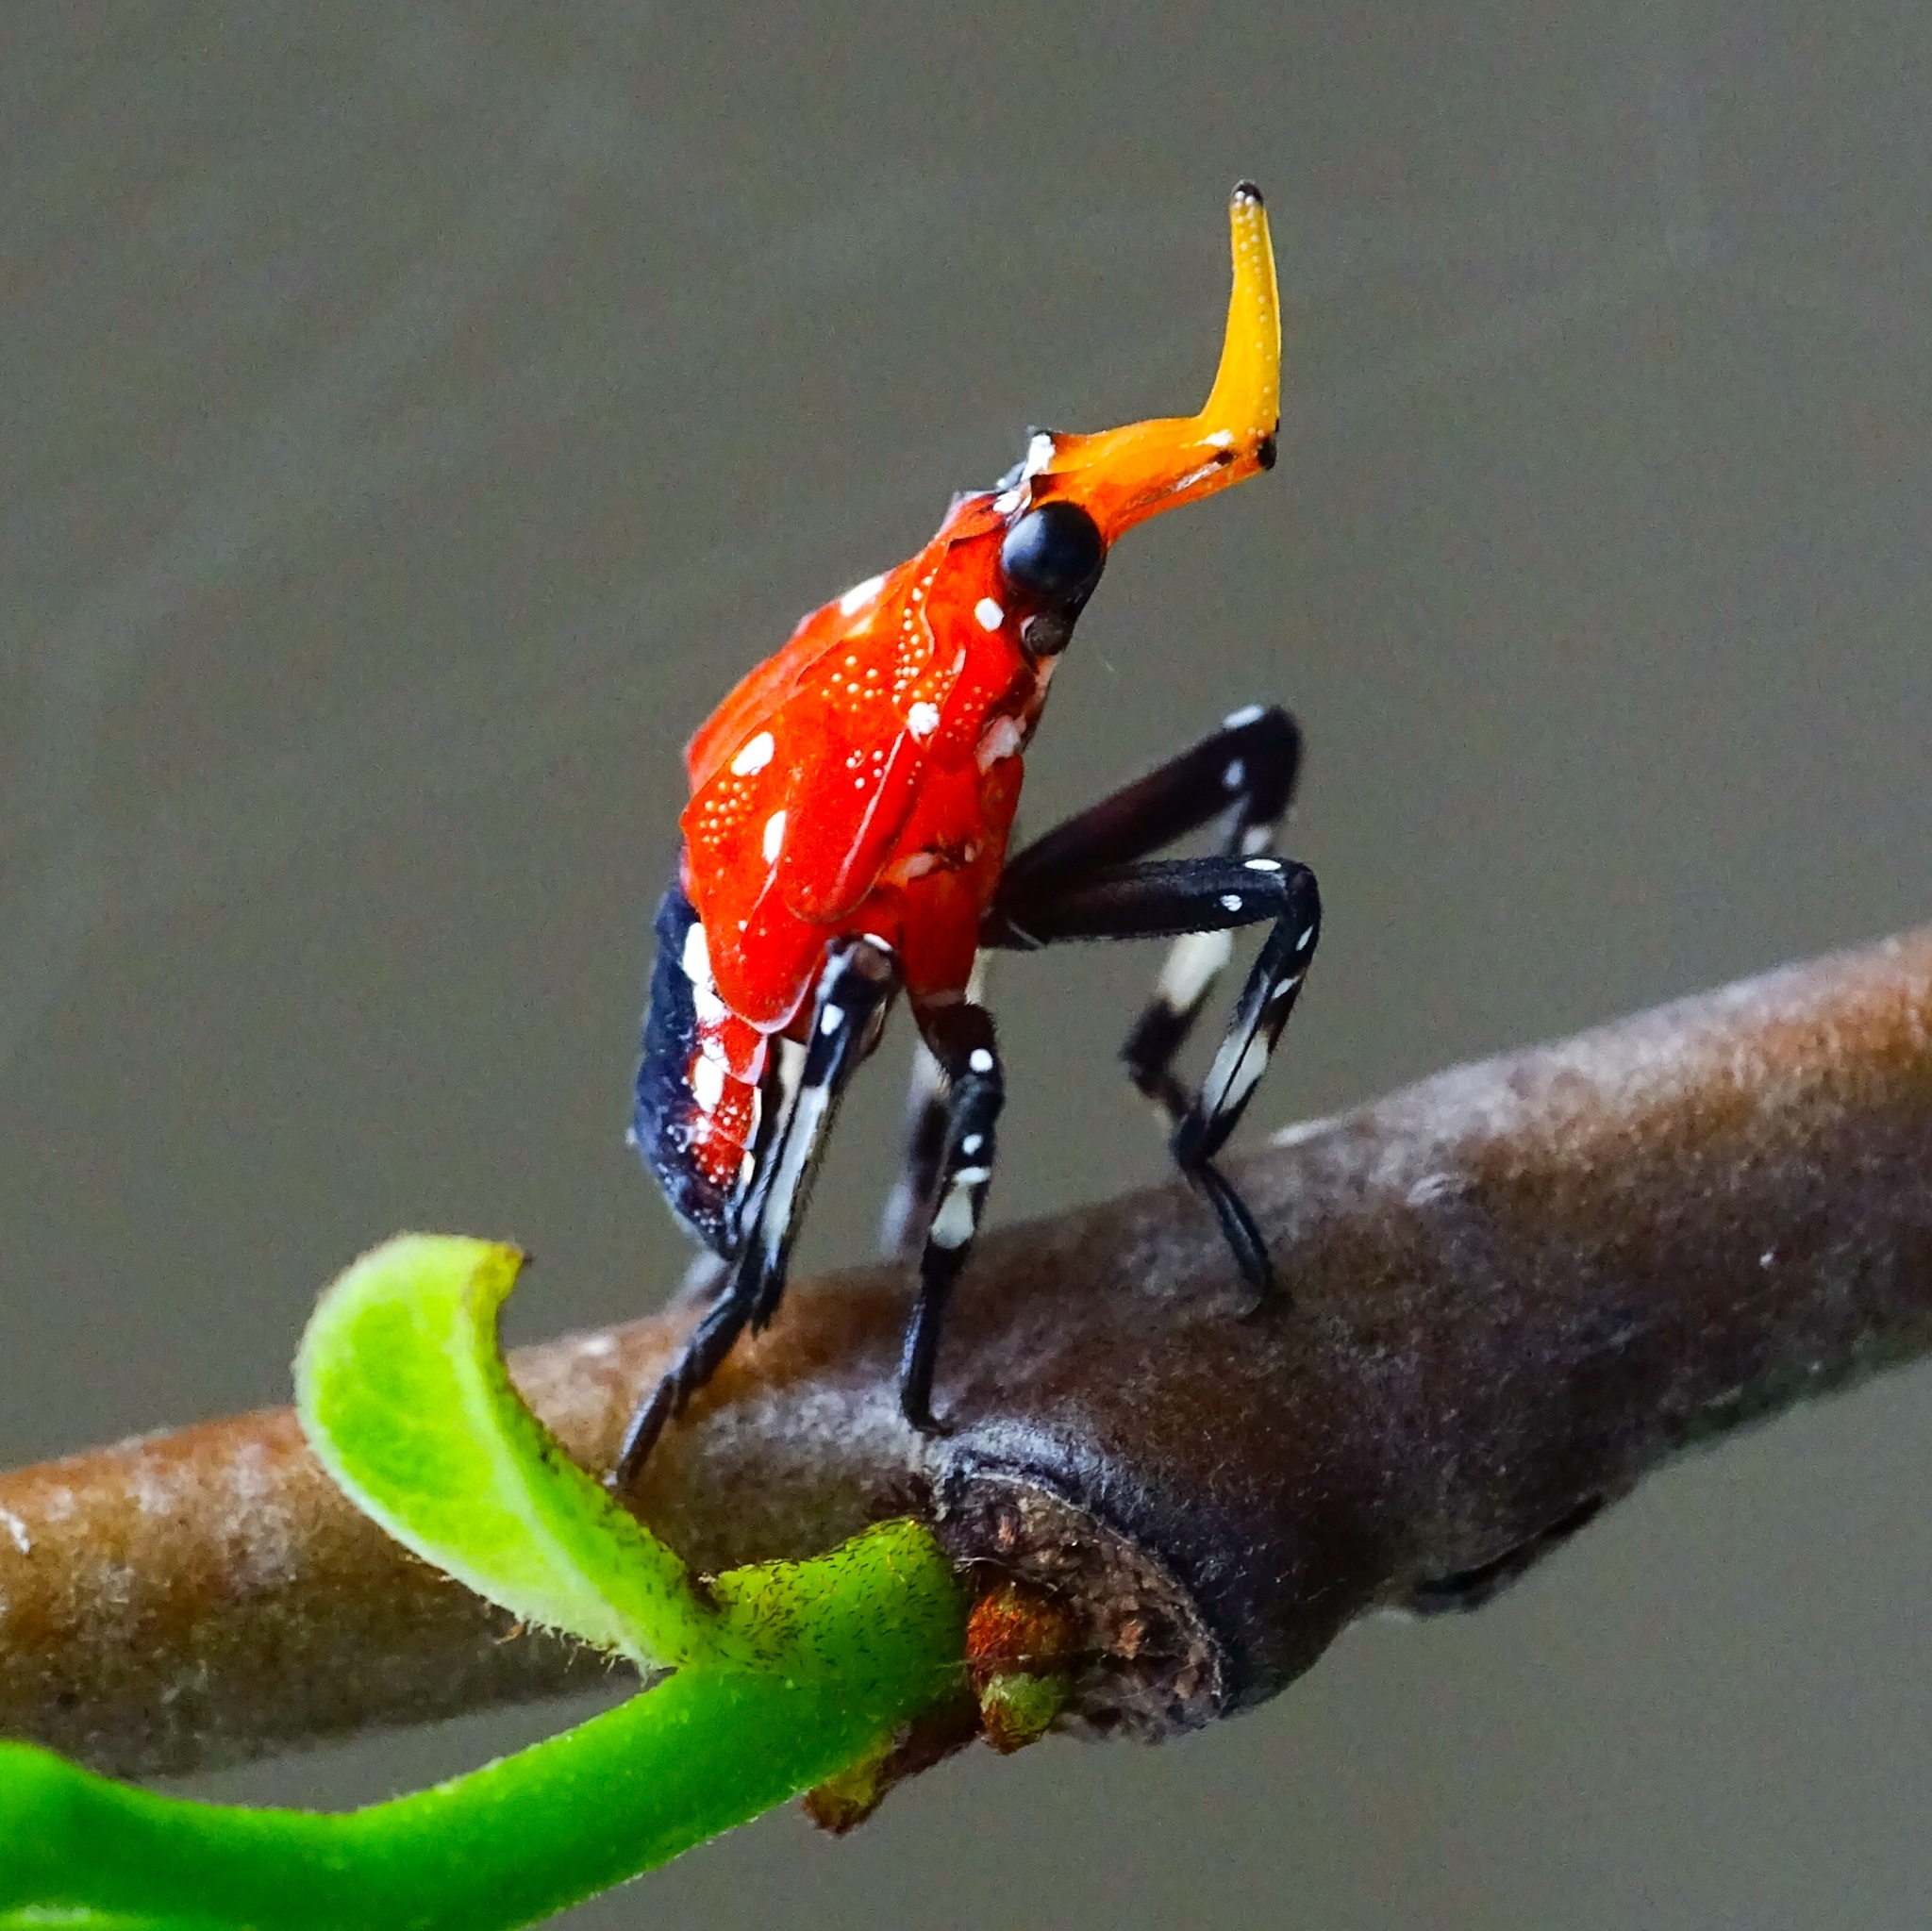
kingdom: Animalia
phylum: Arthropoda
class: Insecta
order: Hemiptera
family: Fulgoridae
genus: Kalidasa
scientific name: Kalidasa lanata
